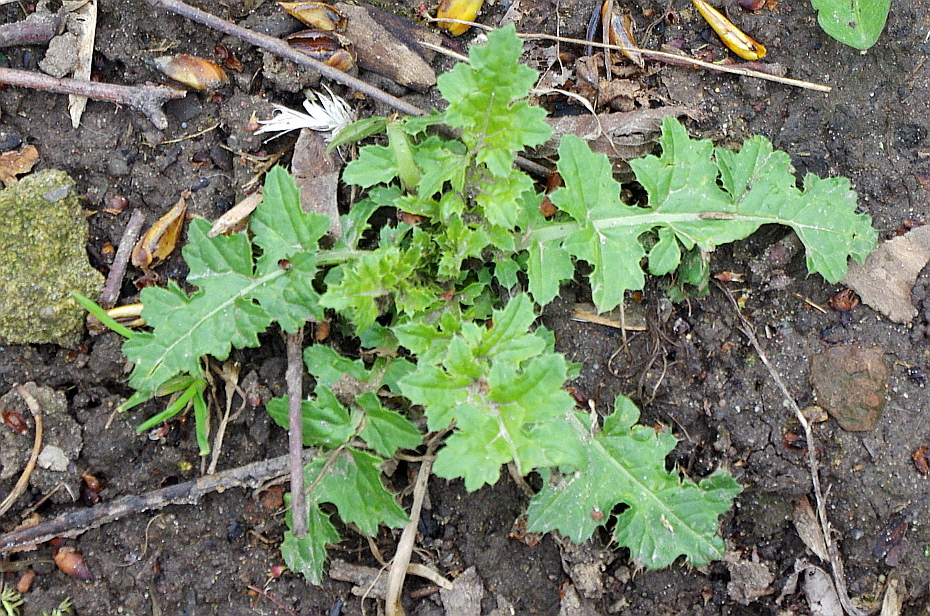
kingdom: Plantae
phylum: Tracheophyta
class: Magnoliopsida
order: Asterales
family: Asteraceae
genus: Carduus
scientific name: Carduus crispus
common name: Welted thistle
